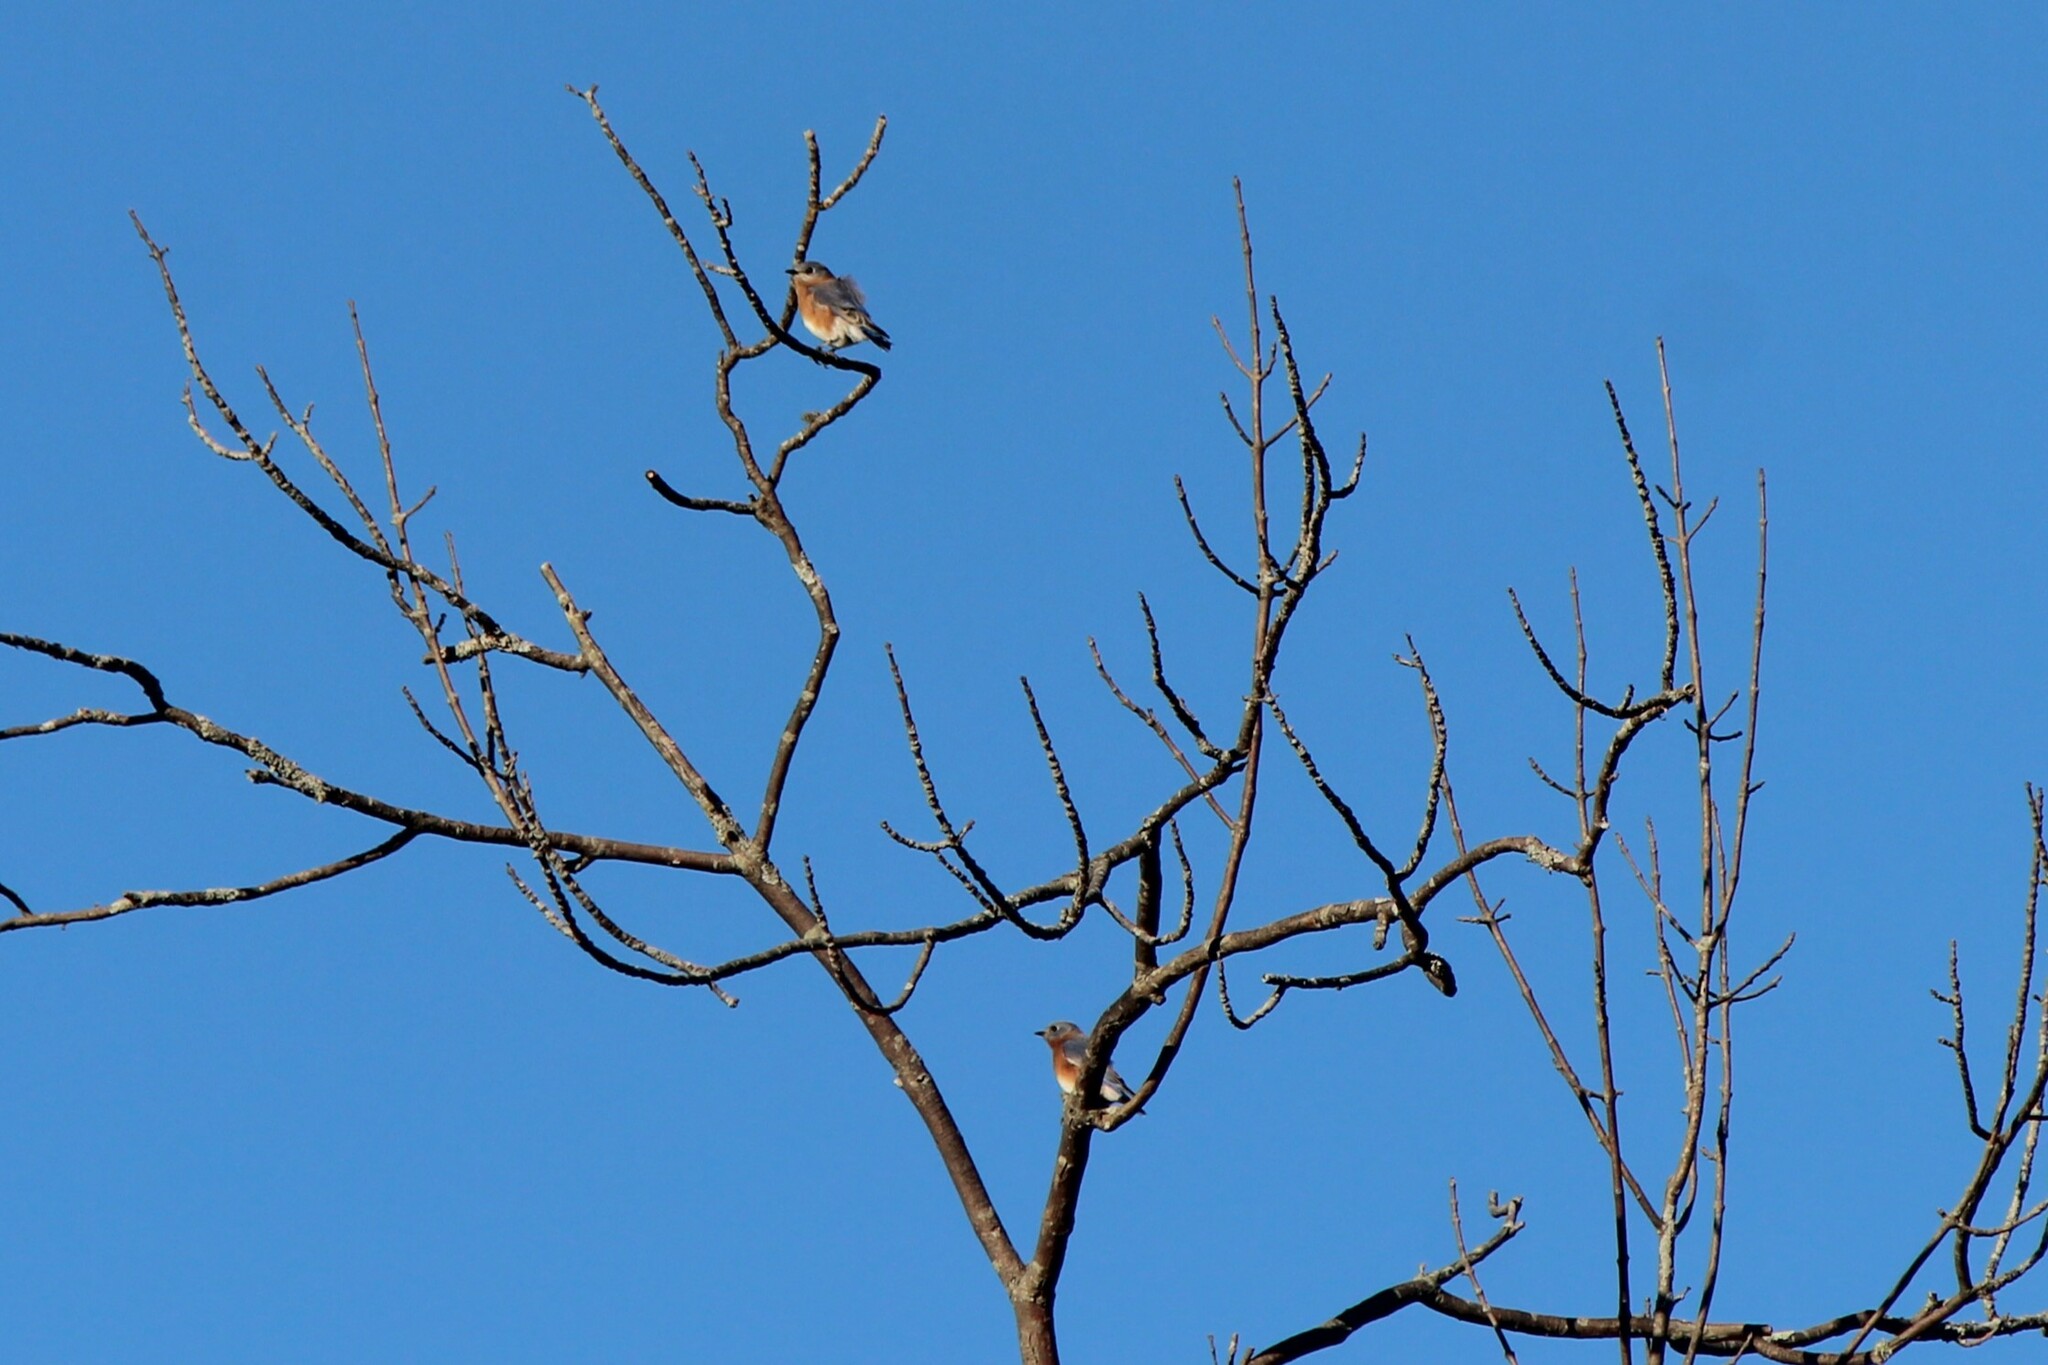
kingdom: Animalia
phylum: Chordata
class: Aves
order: Passeriformes
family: Turdidae
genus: Sialia
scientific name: Sialia sialis
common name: Eastern bluebird
